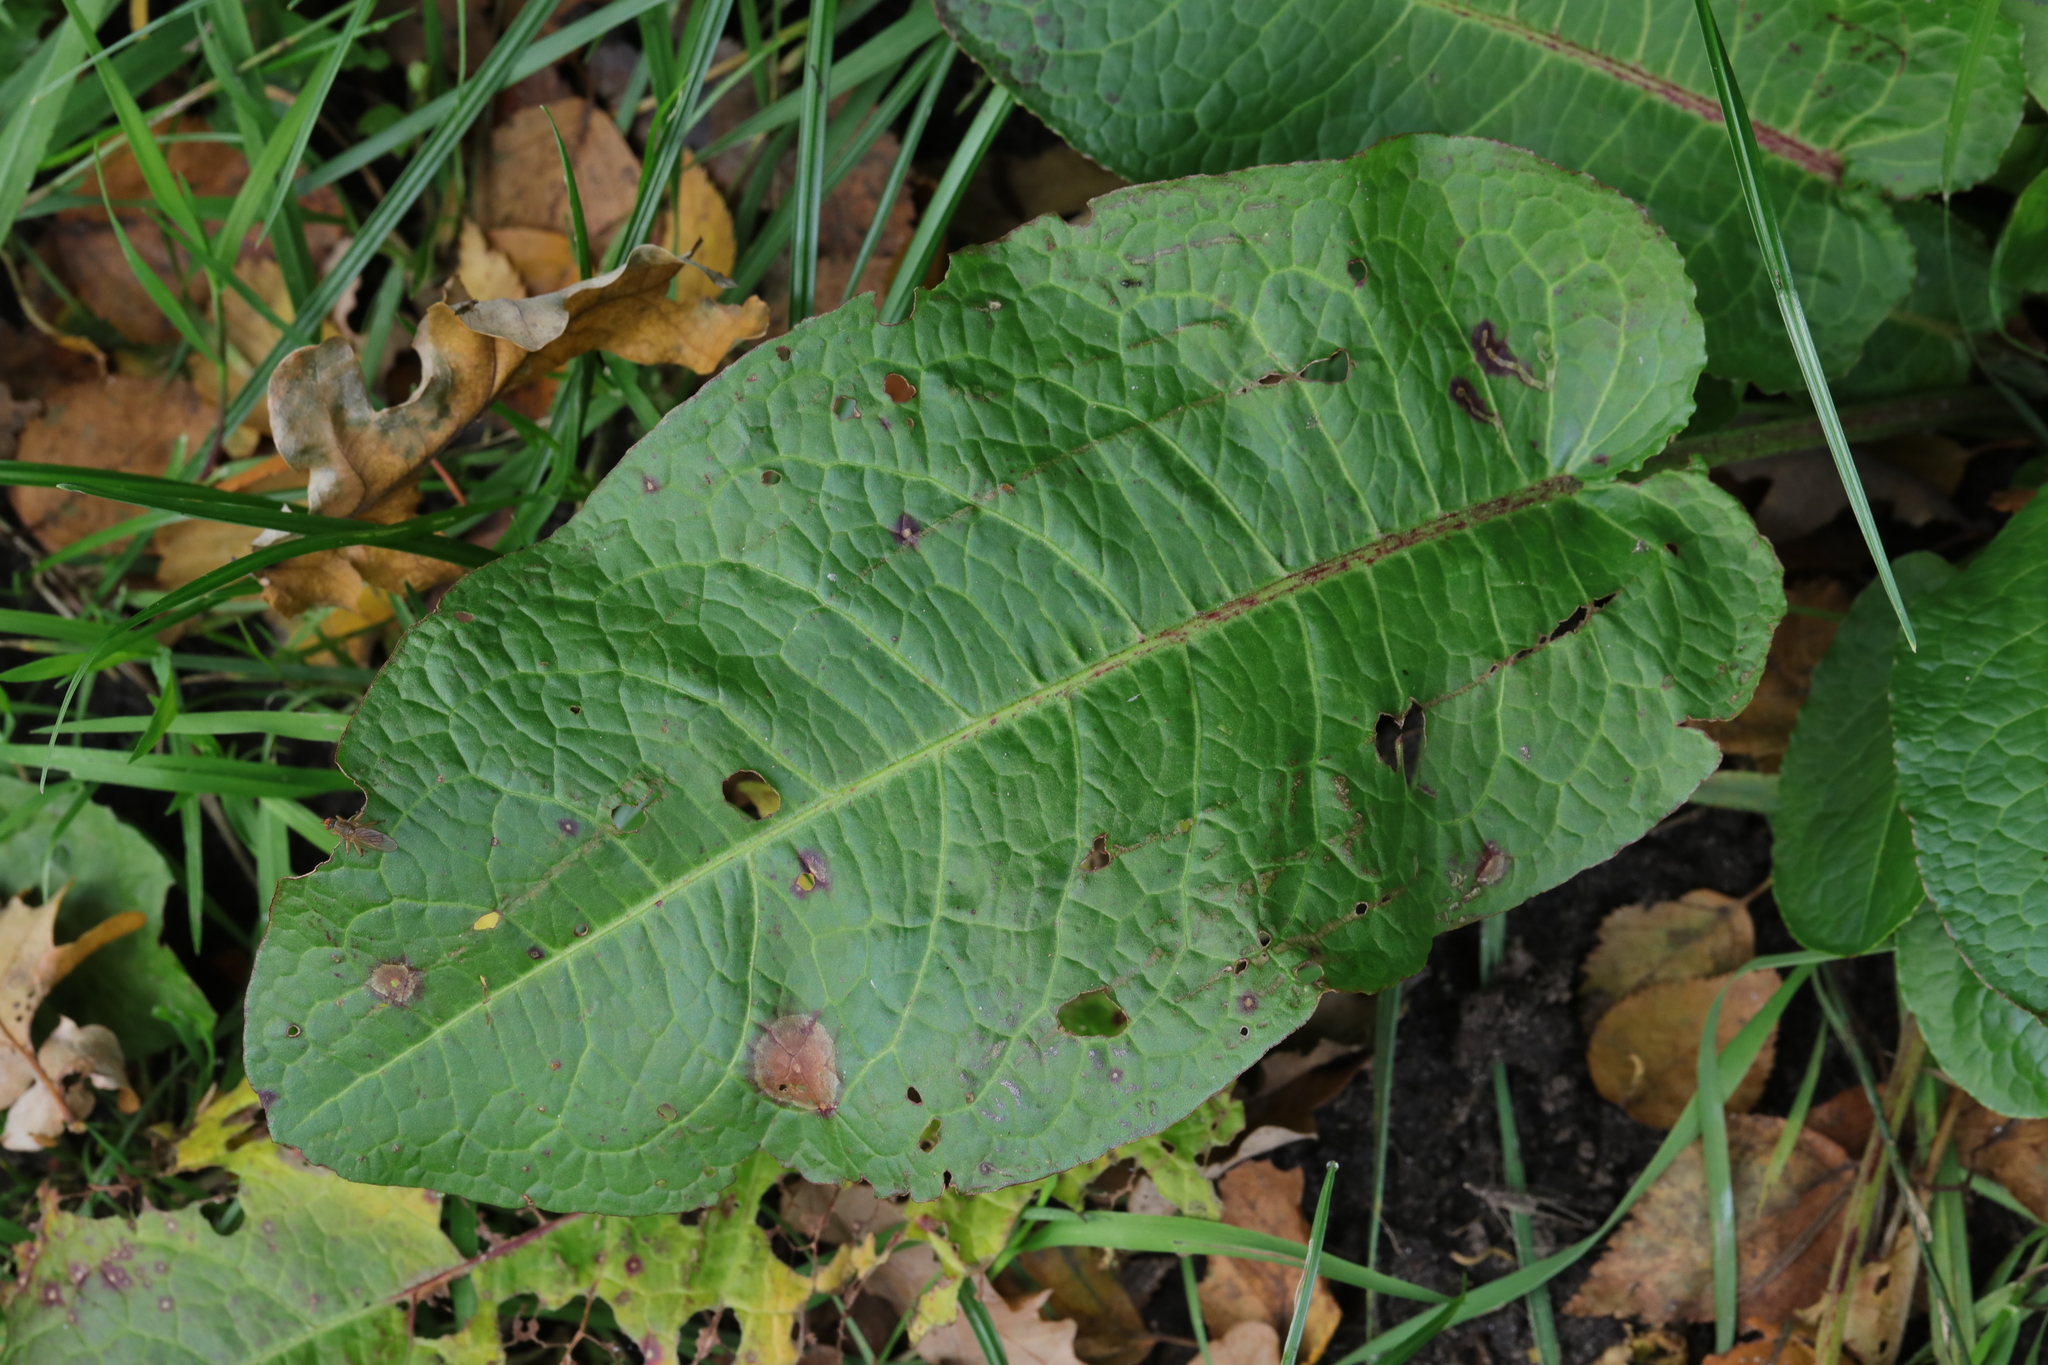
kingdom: Plantae
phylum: Tracheophyta
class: Magnoliopsida
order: Caryophyllales
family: Polygonaceae
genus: Rumex
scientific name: Rumex obtusifolius
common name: Bitter dock
